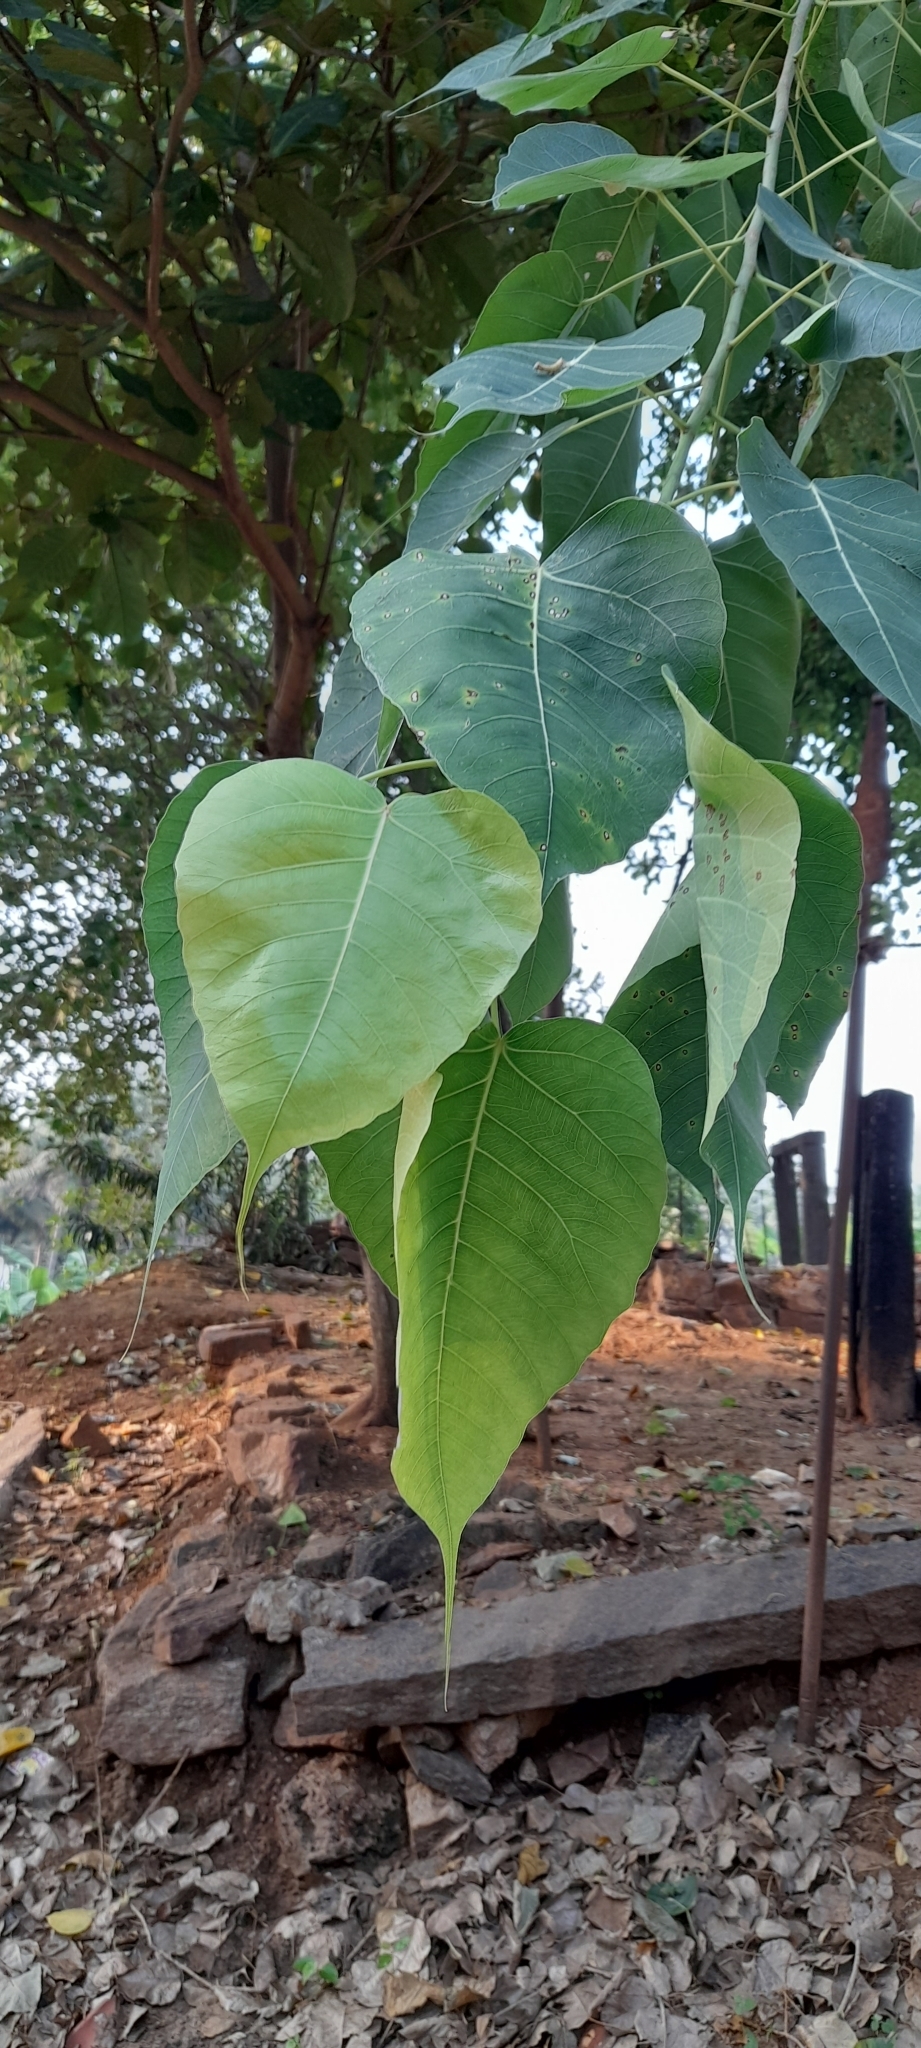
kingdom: Plantae
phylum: Tracheophyta
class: Magnoliopsida
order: Rosales
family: Moraceae
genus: Ficus
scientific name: Ficus religiosa
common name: Bodhi tree
